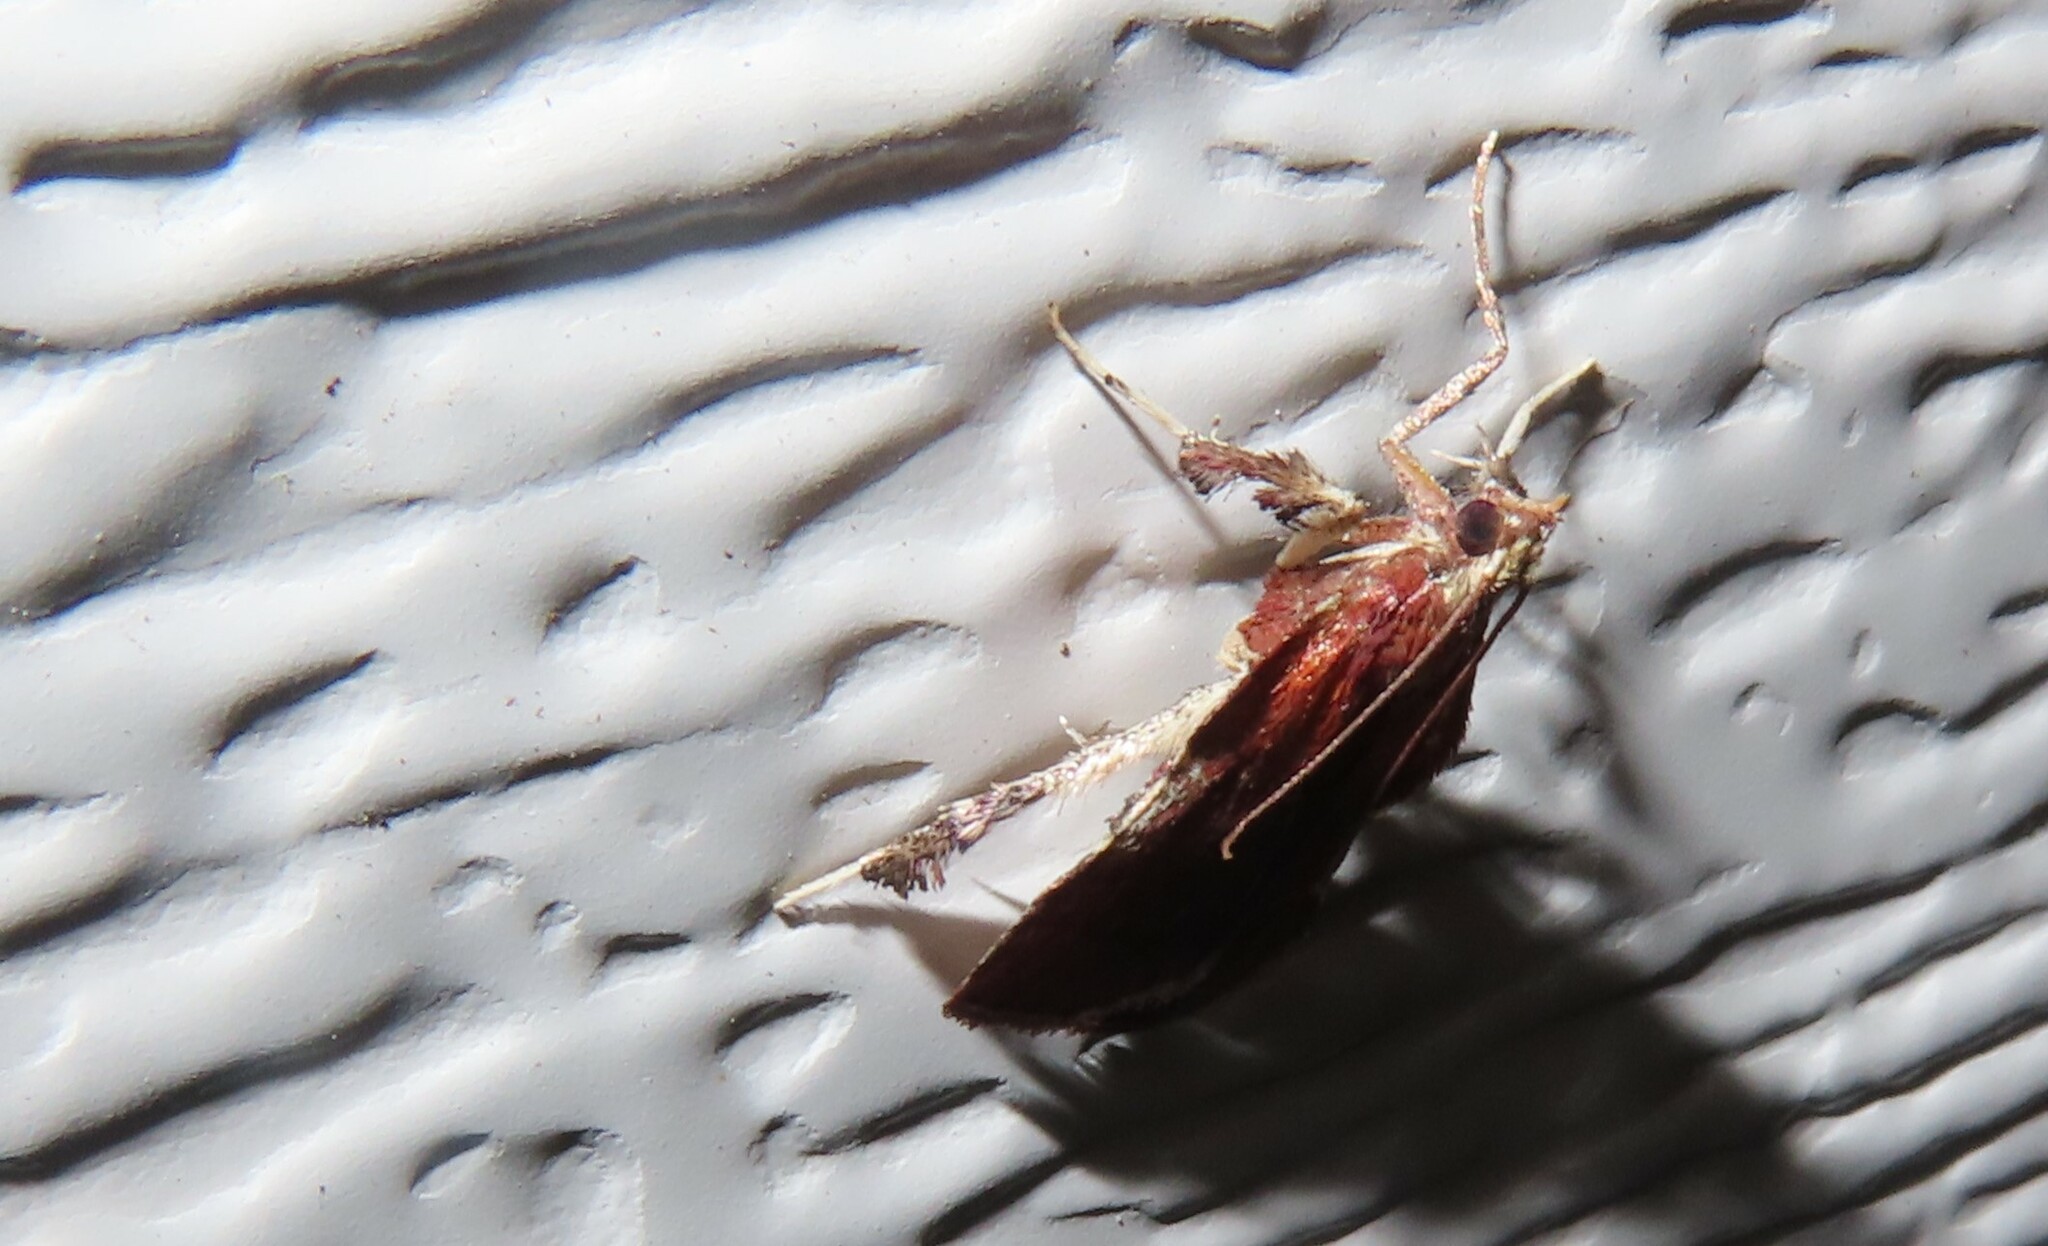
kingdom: Animalia
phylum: Arthropoda
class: Insecta
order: Lepidoptera
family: Pyralidae
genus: Galasa
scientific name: Galasa nigrinodis
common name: Boxwood leaftier moth
